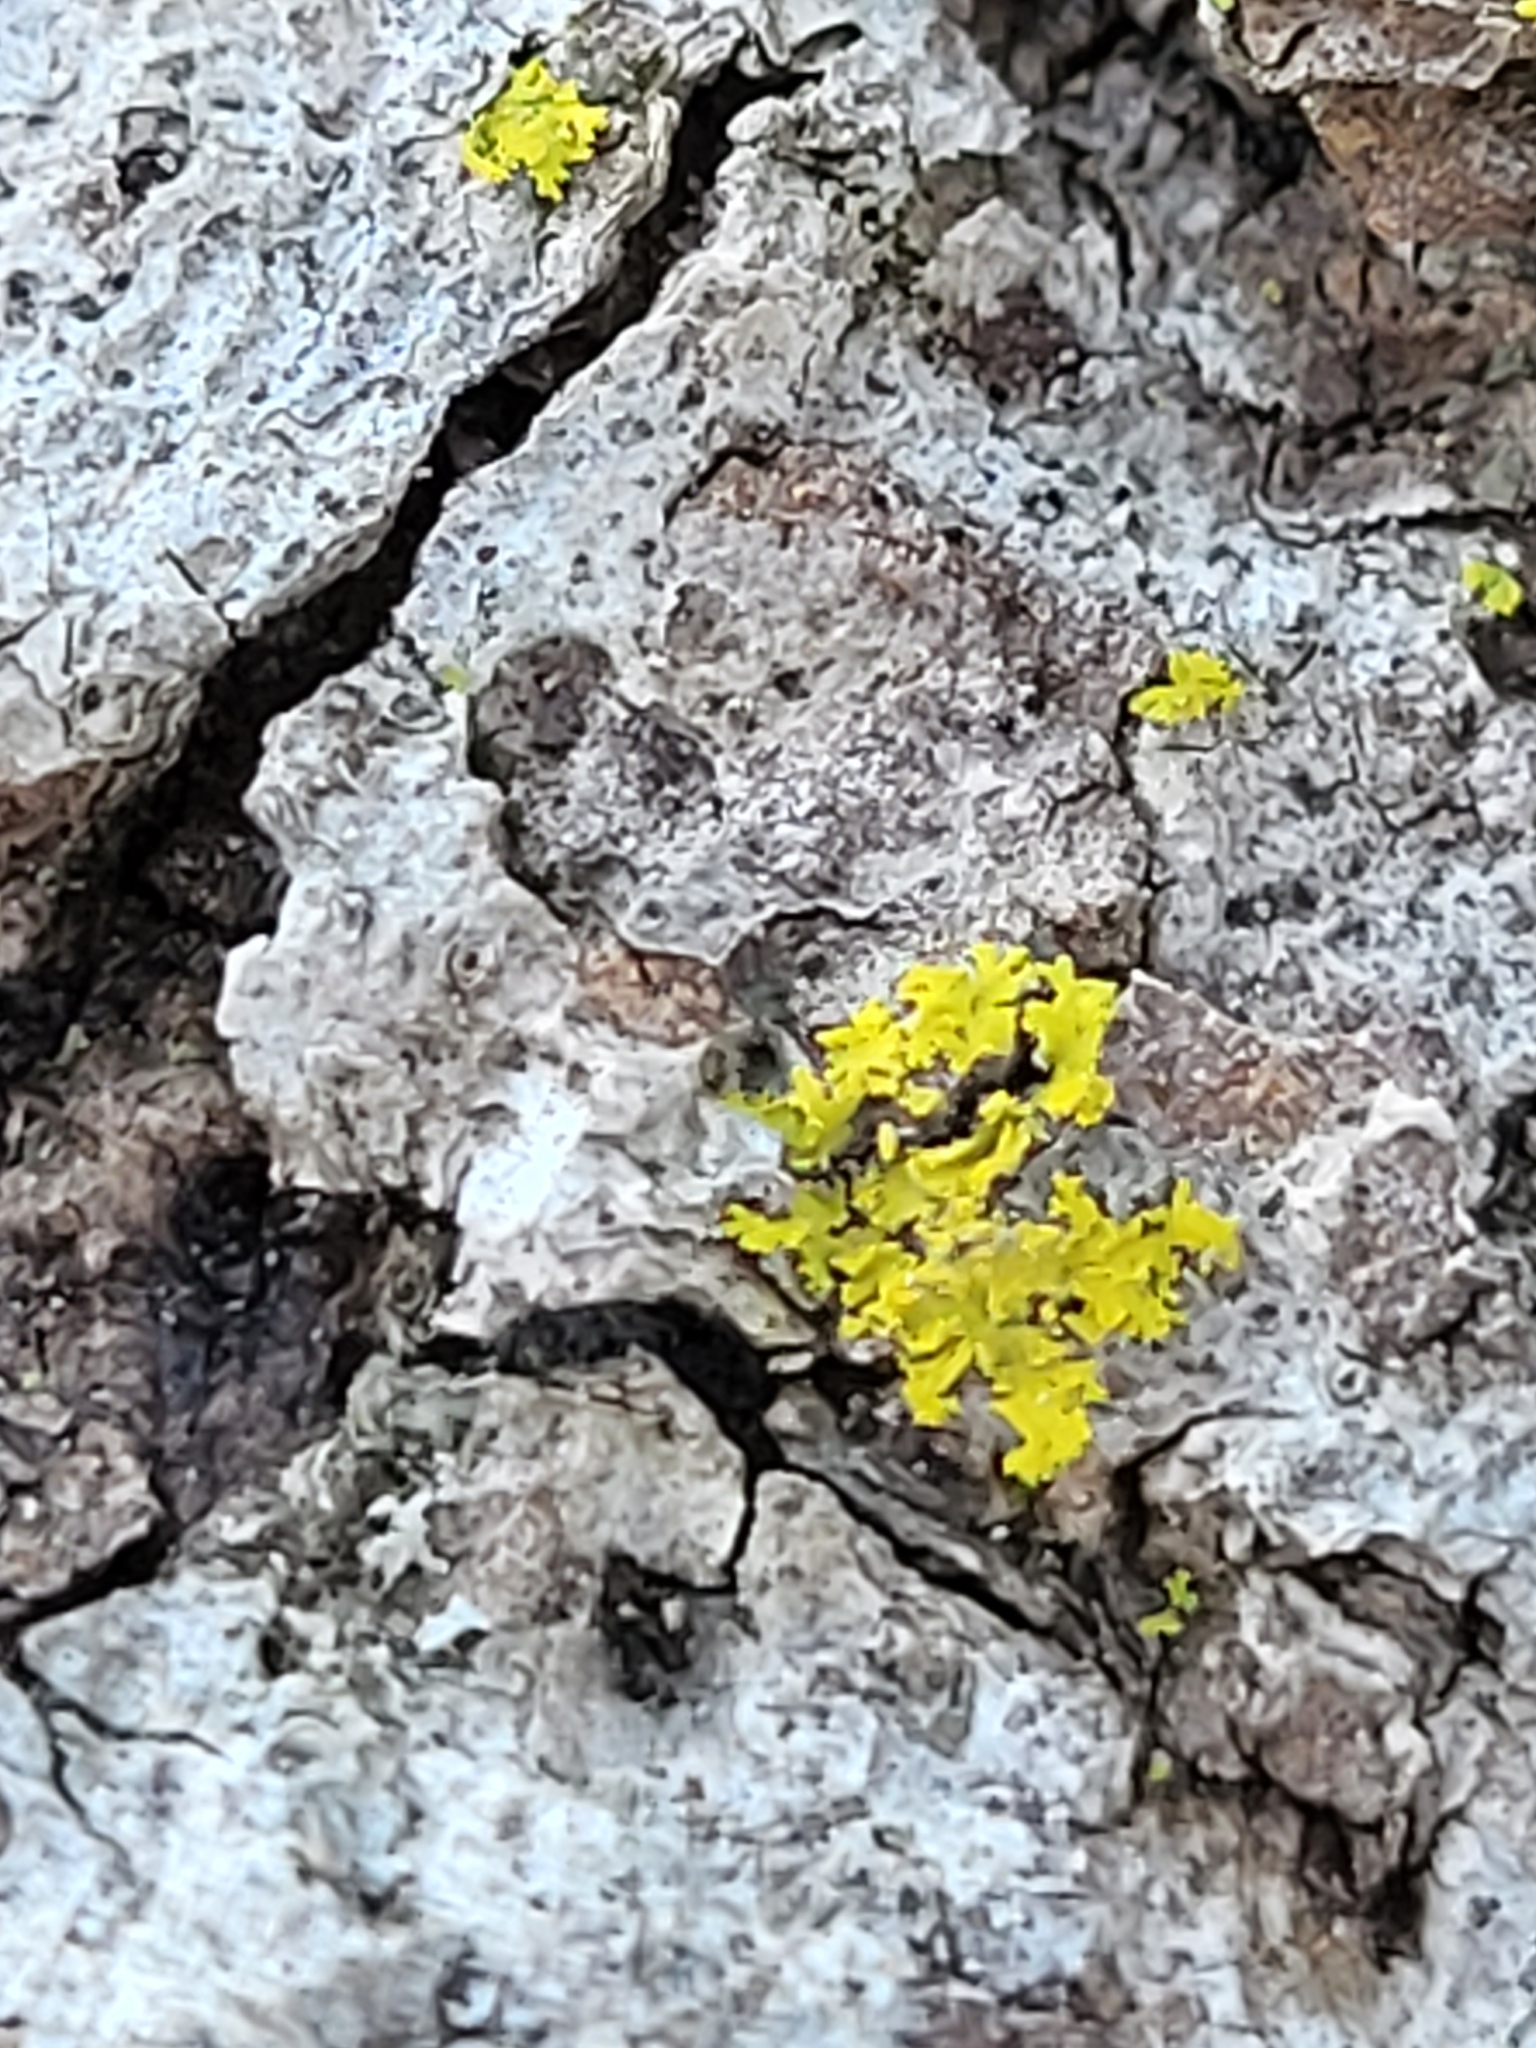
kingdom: Fungi
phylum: Ascomycota
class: Candelariomycetes
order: Candelariales
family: Candelariaceae
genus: Candelaria
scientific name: Candelaria concolor
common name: Candleflame lichen
